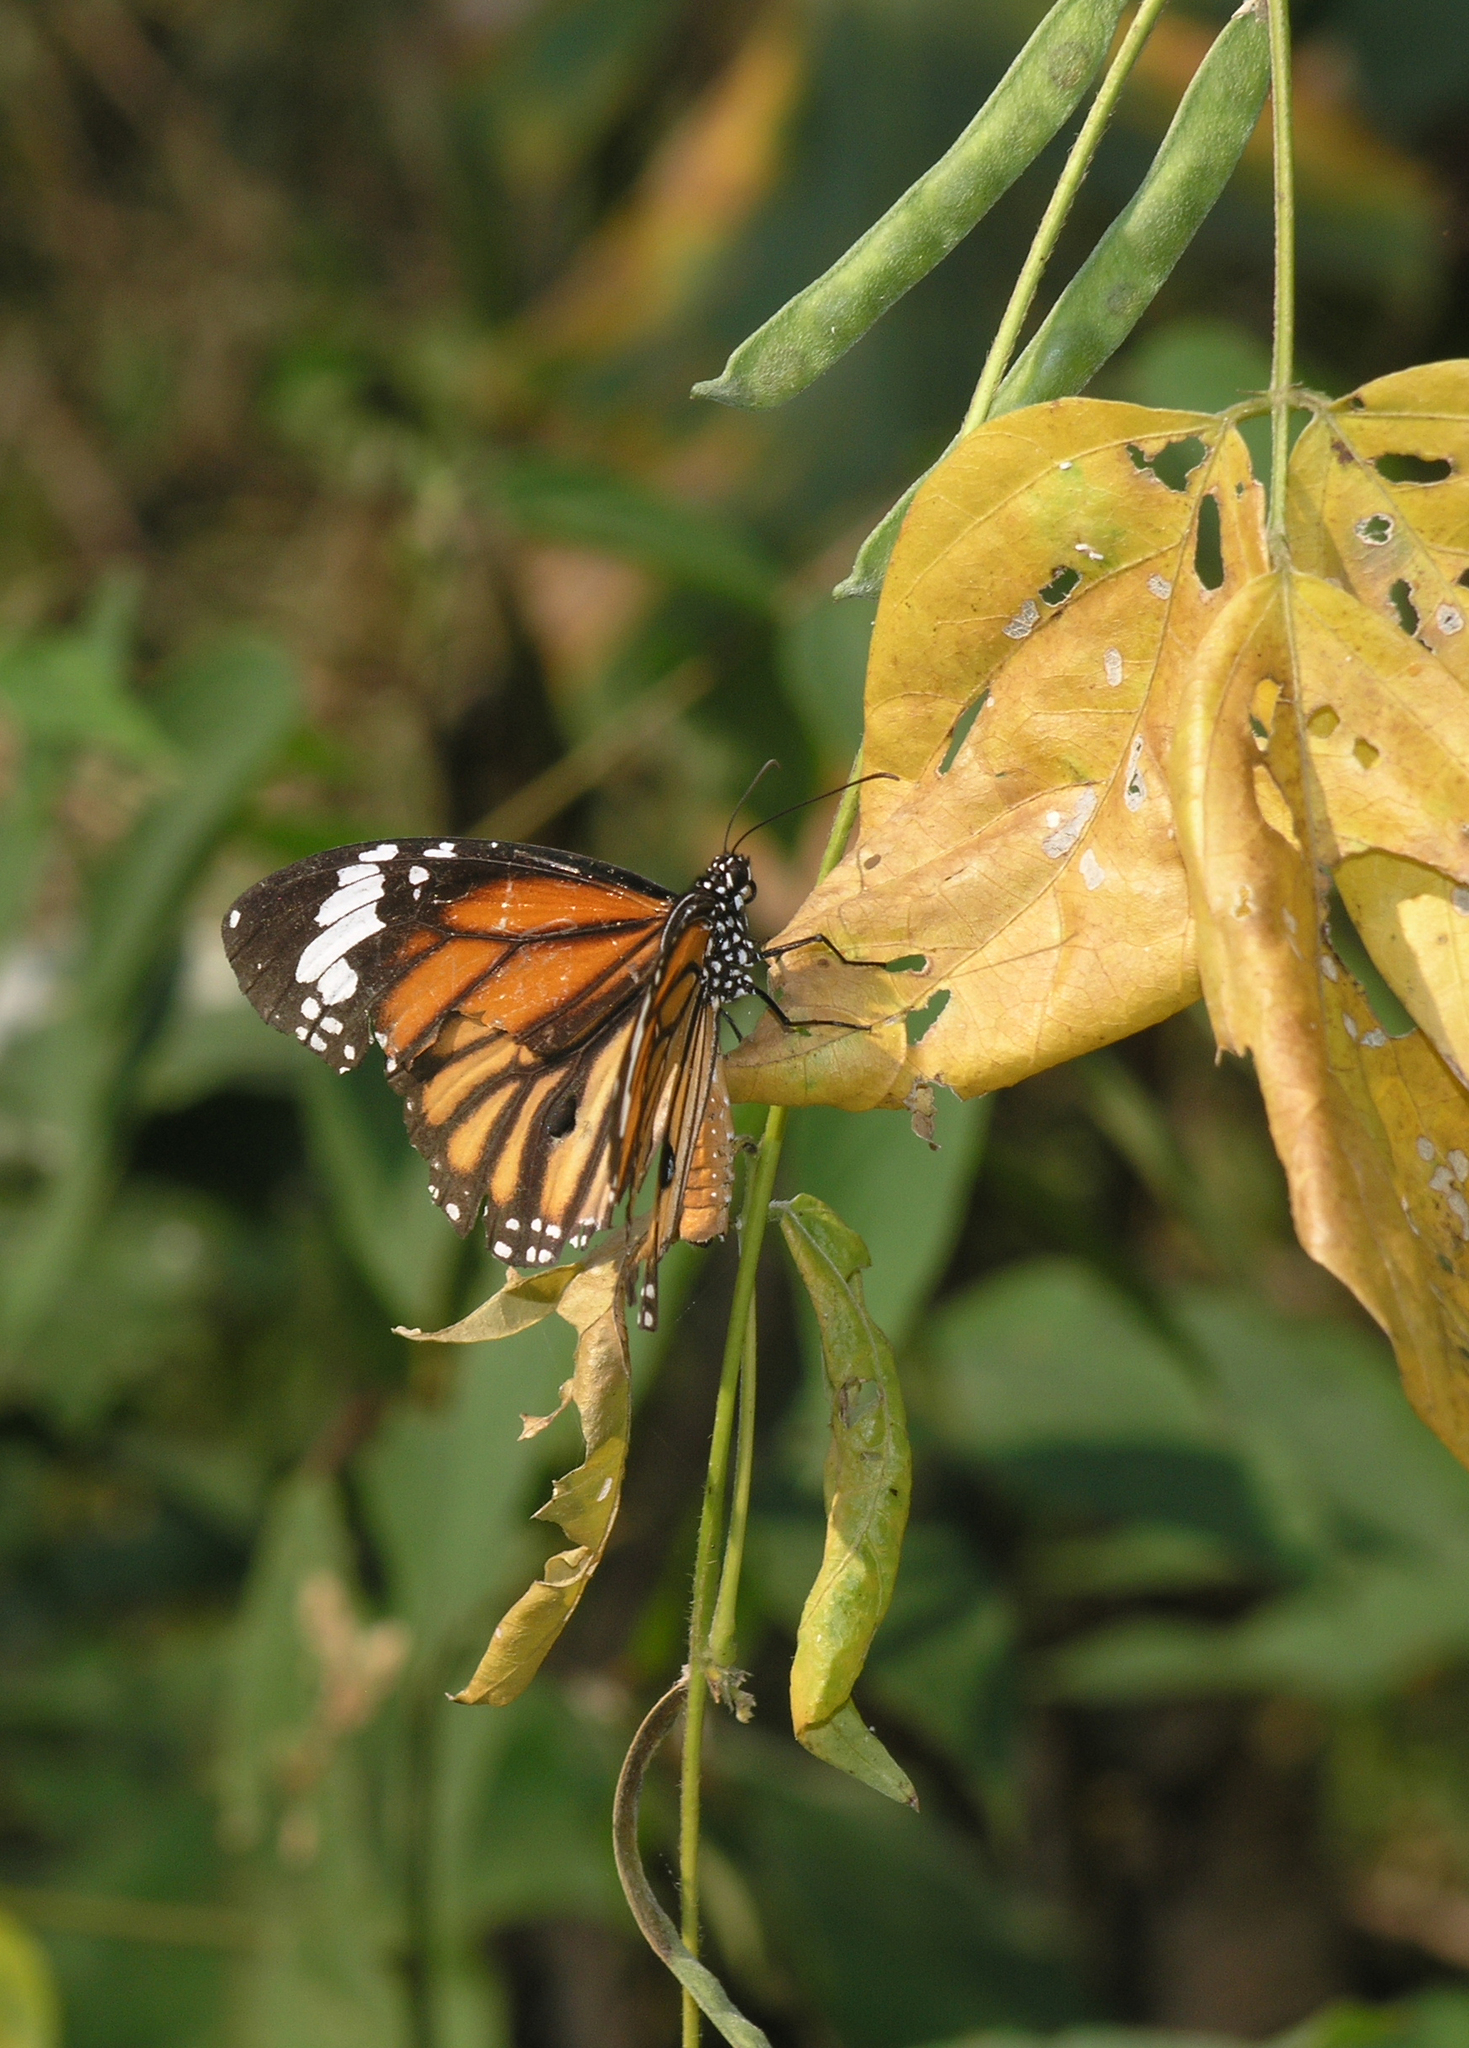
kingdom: Animalia
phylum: Arthropoda
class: Insecta
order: Lepidoptera
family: Nymphalidae
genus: Danaus
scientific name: Danaus genutia
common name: Common tiger butterfly
